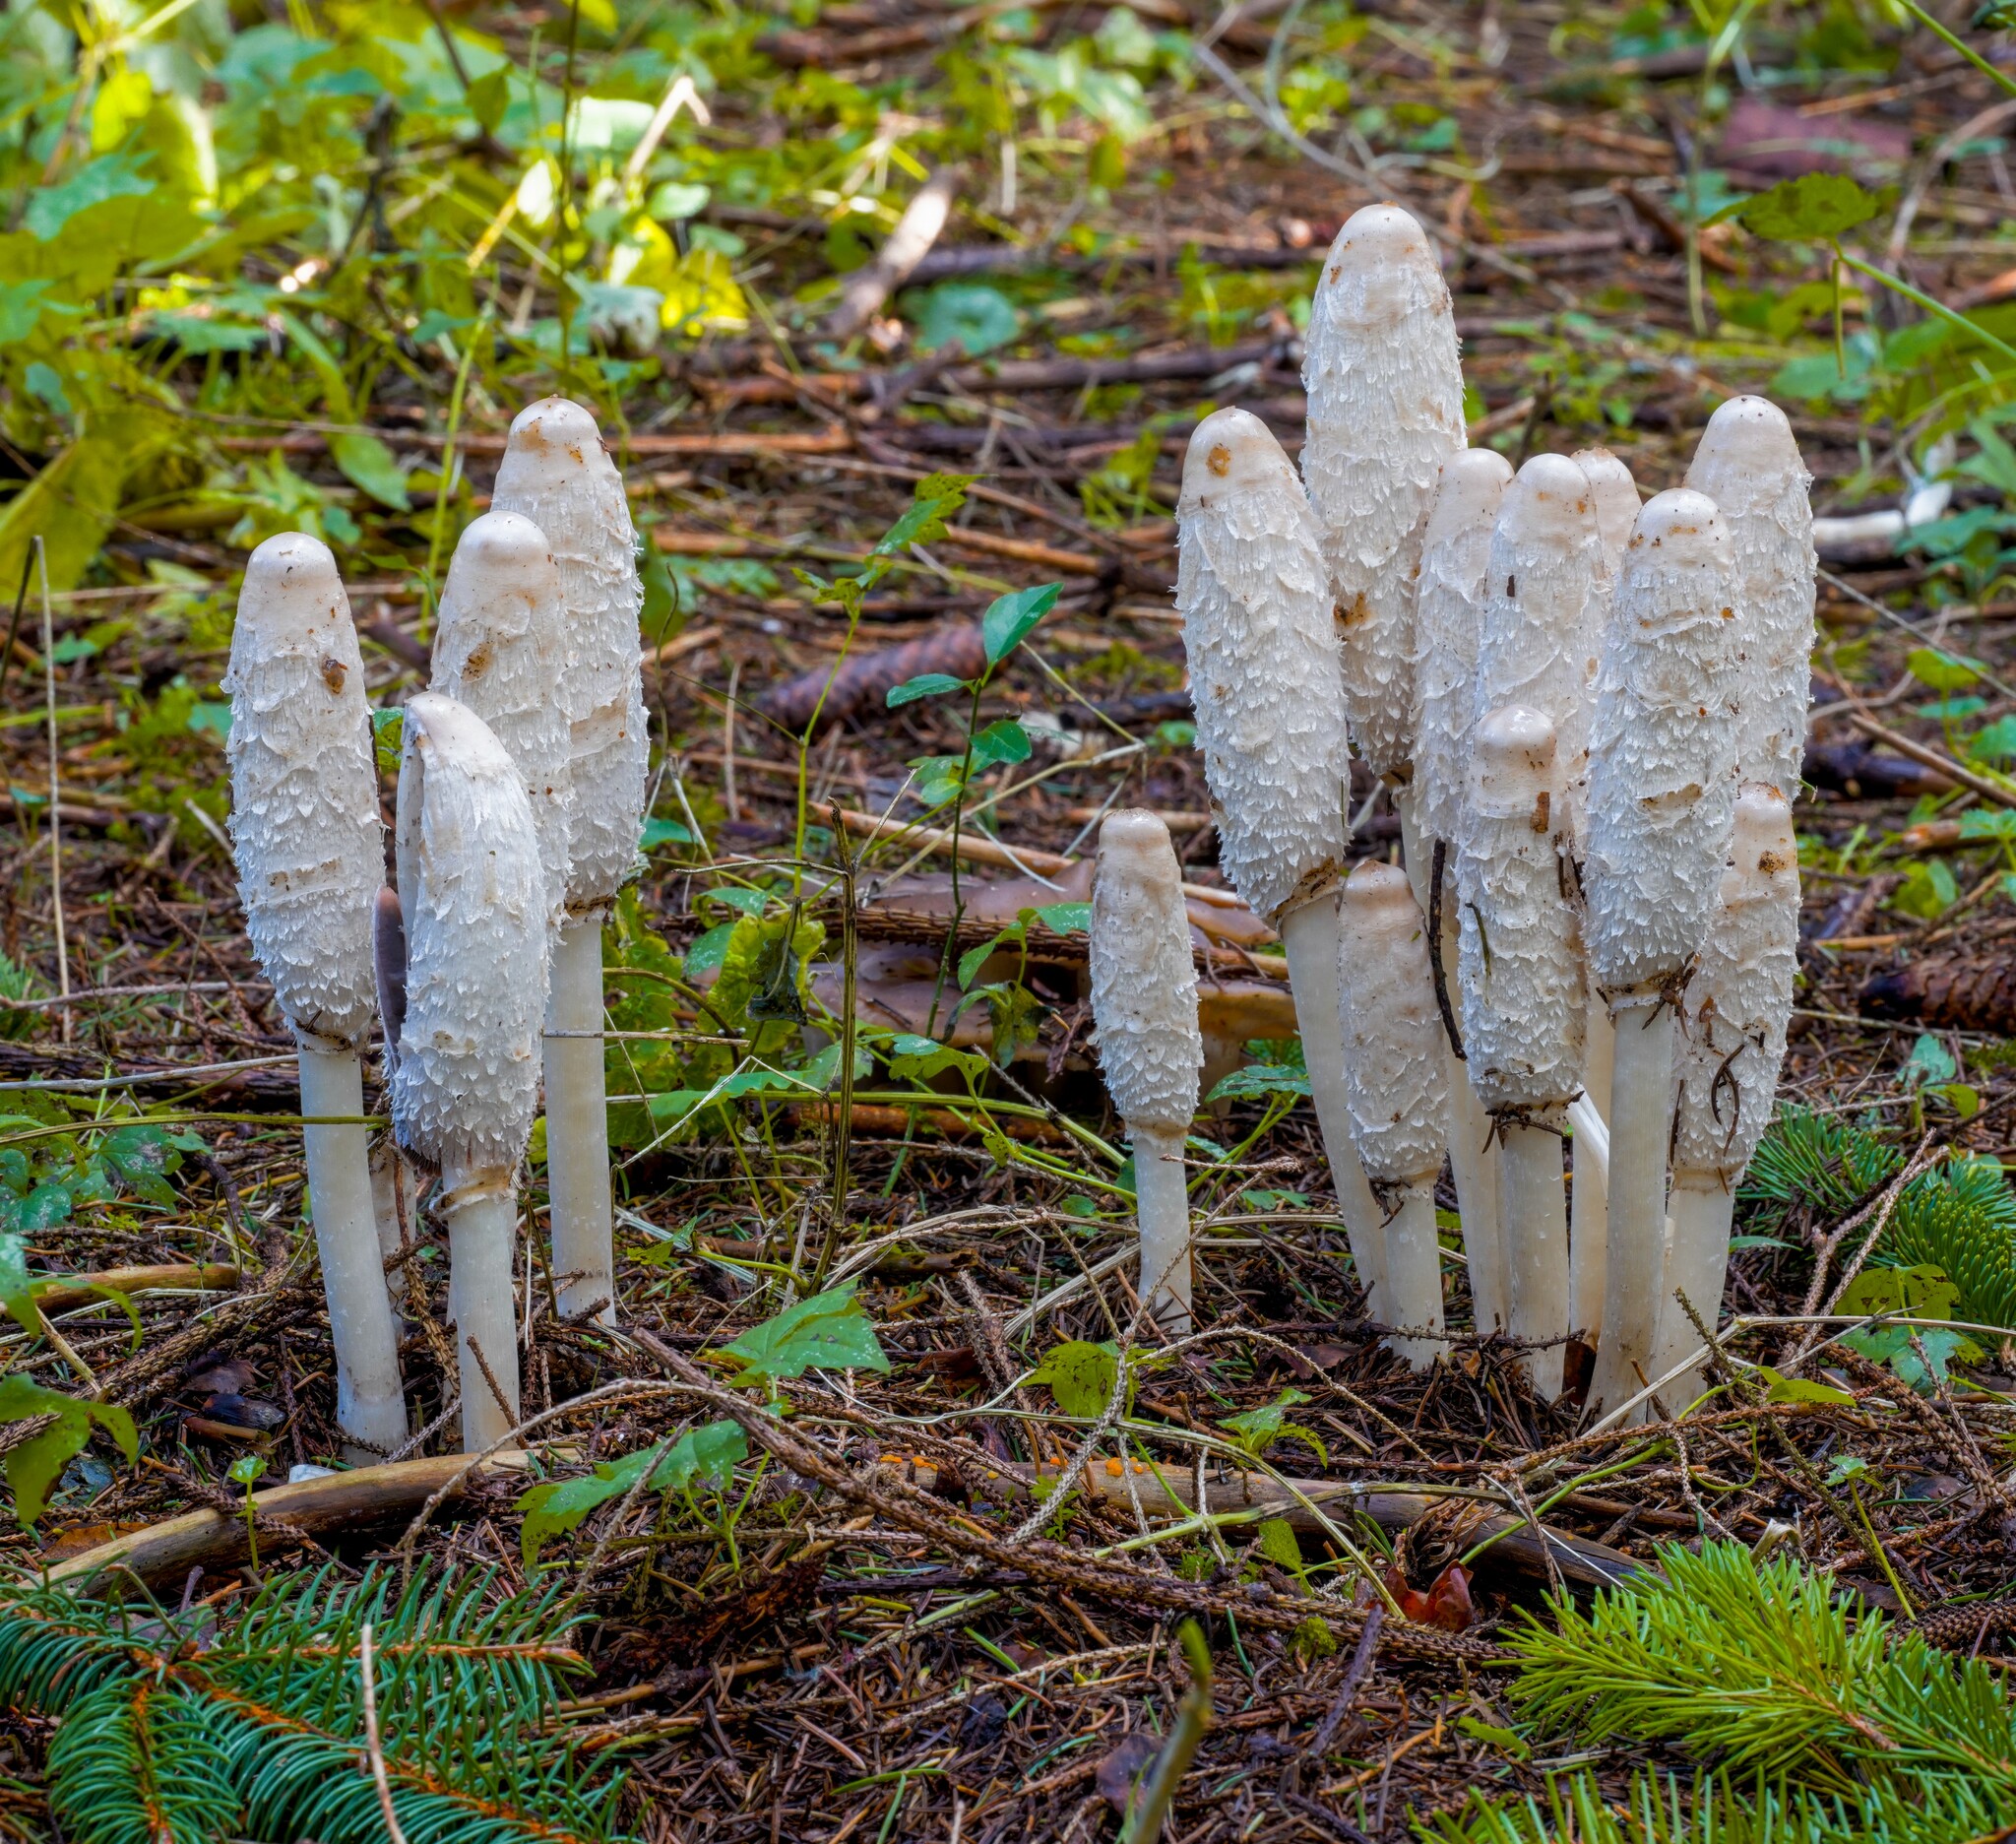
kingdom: Fungi
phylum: Basidiomycota
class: Agaricomycetes
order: Agaricales
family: Agaricaceae
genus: Coprinus
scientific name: Coprinus comatus
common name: Lawyer's wig
